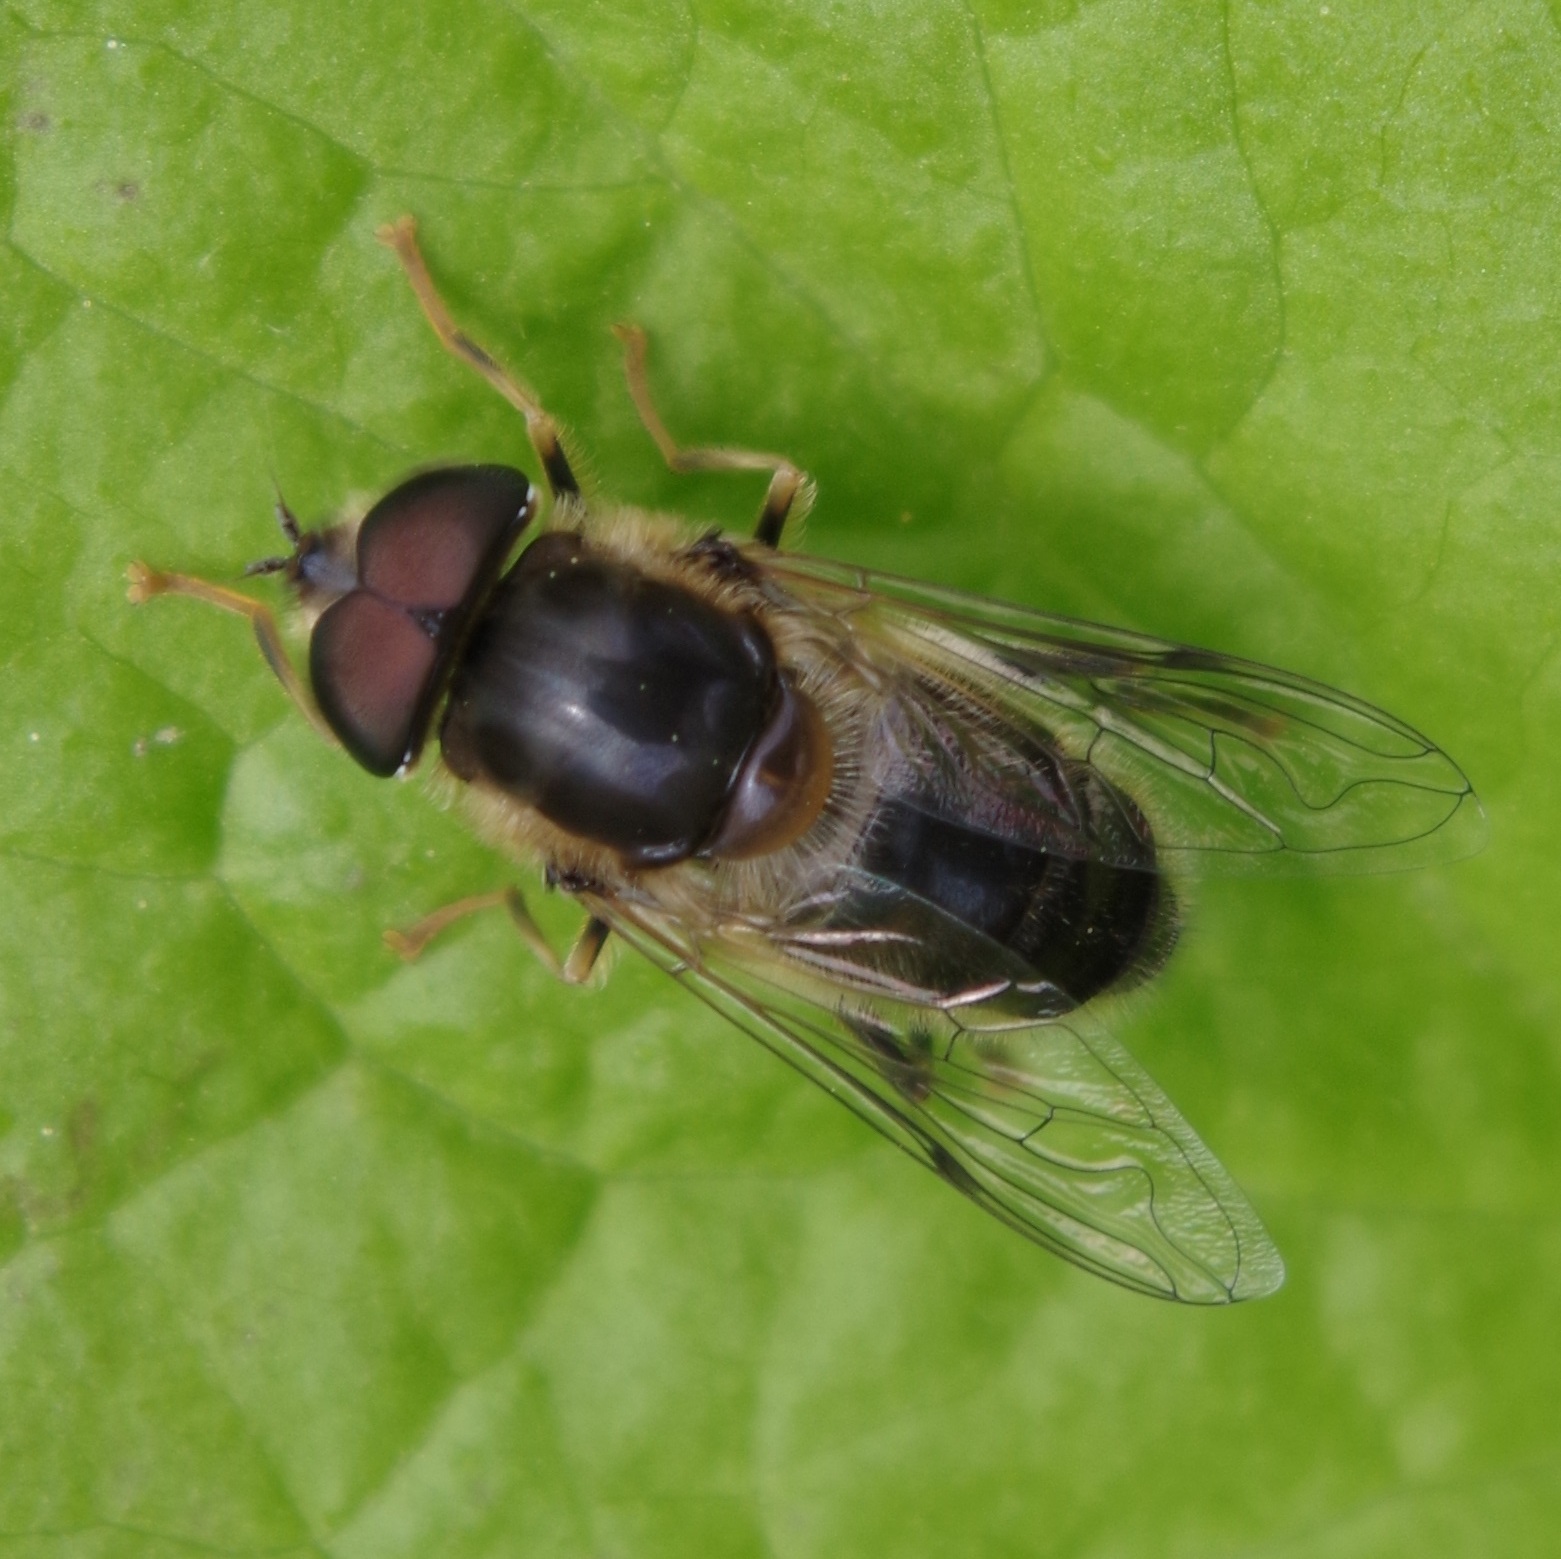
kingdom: Animalia
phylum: Arthropoda
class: Insecta
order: Diptera
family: Syrphidae
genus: Eristalis
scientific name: Eristalis pertinax
